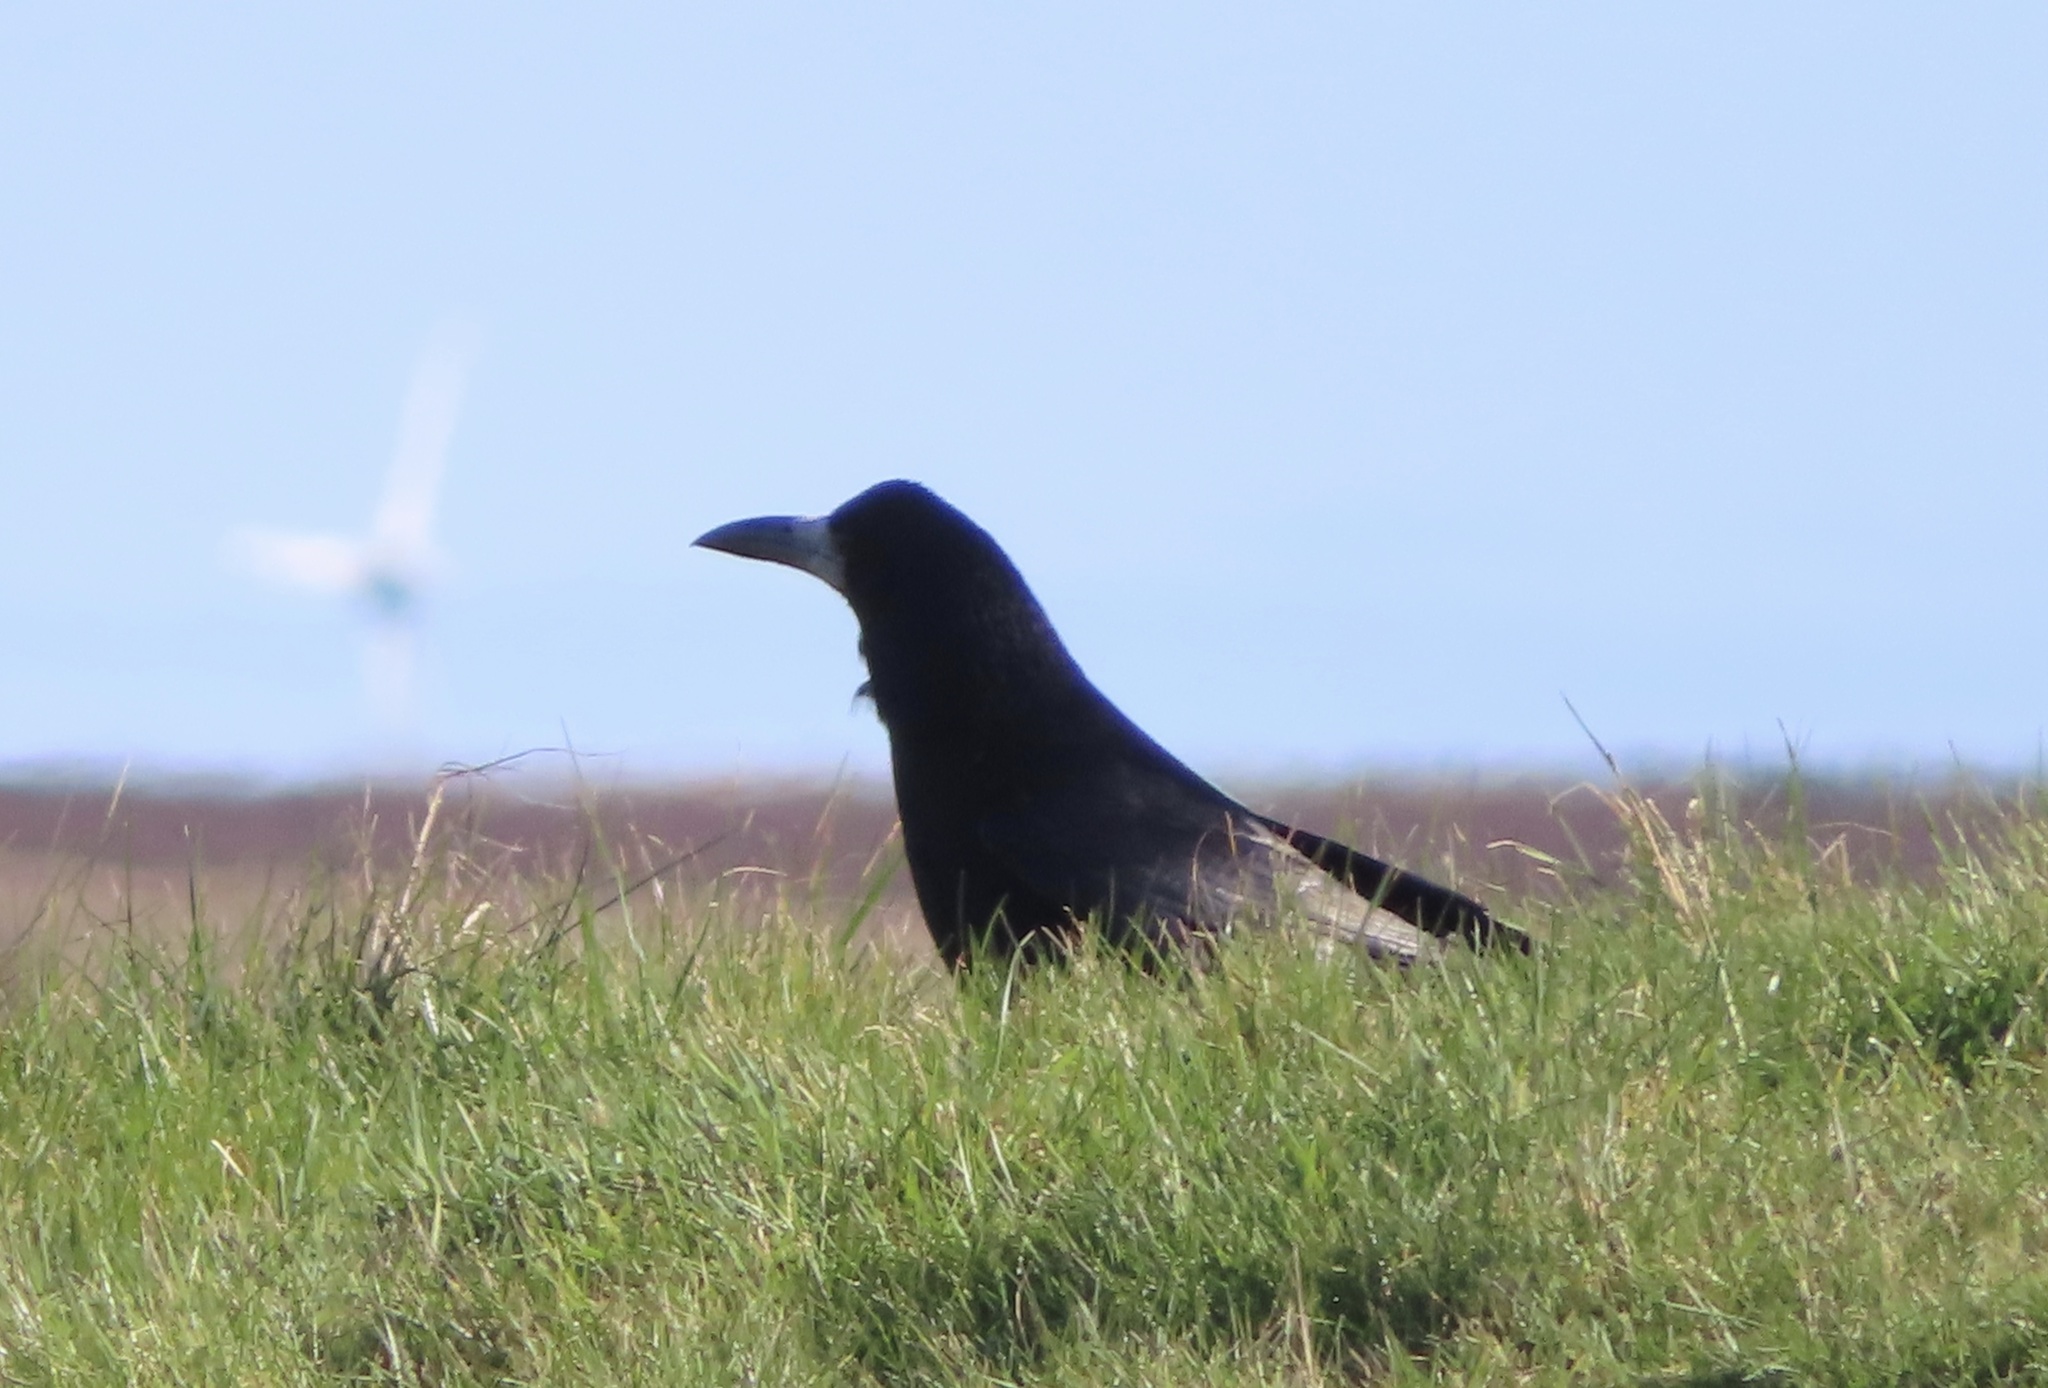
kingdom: Animalia
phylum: Chordata
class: Aves
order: Passeriformes
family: Corvidae
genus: Corvus
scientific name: Corvus frugilegus
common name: Rook
